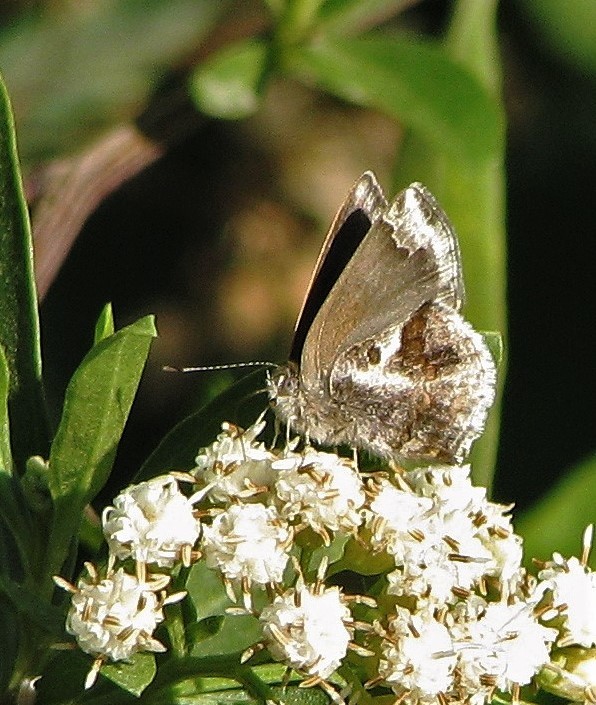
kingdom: Animalia
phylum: Arthropoda
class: Insecta
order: Lepidoptera
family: Lycaenidae
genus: Strymon
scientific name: Strymon bazochii
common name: Lantana scrub-hairstreak
